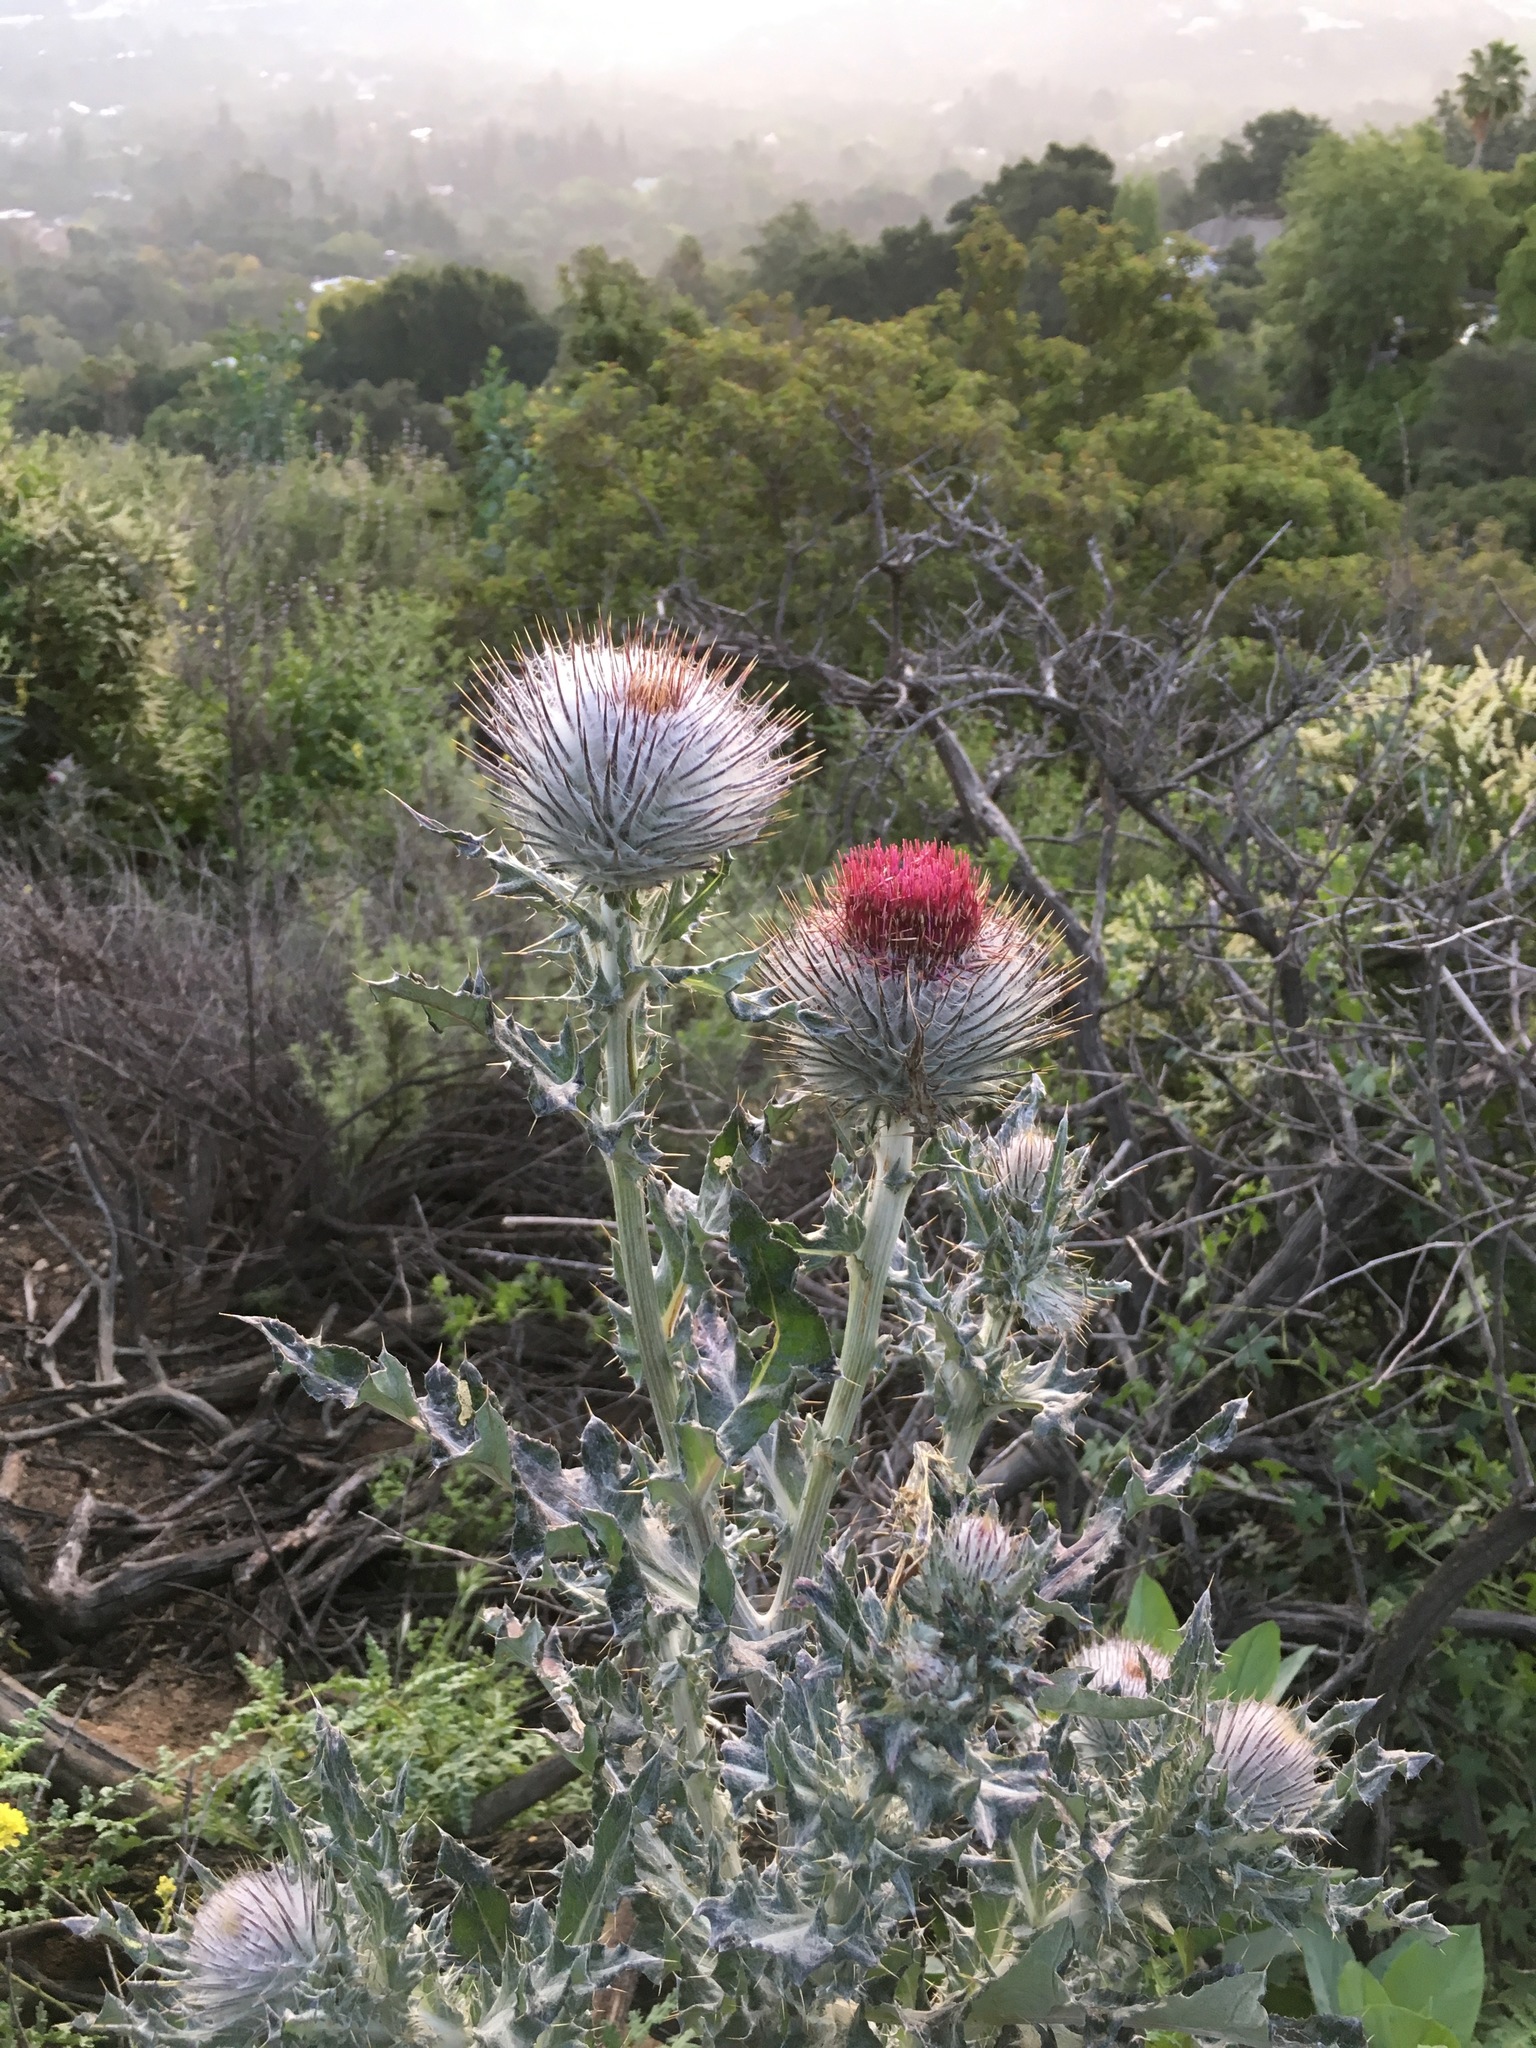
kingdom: Plantae
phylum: Tracheophyta
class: Magnoliopsida
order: Asterales
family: Asteraceae
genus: Cirsium
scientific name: Cirsium occidentale
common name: Western thistle
